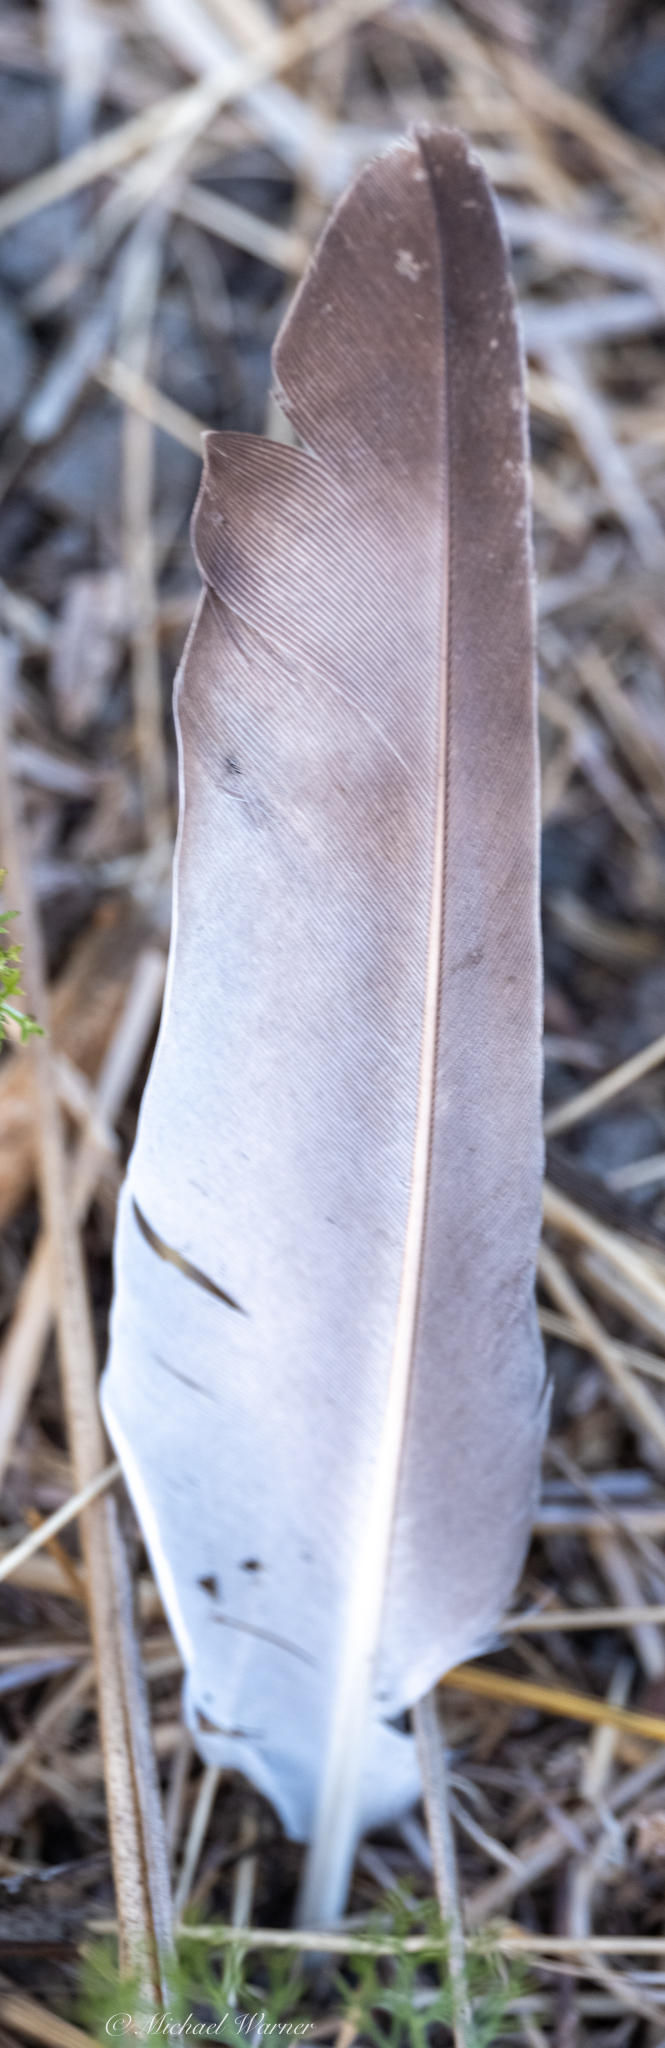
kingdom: Animalia
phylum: Chordata
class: Aves
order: Columbiformes
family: Columbidae
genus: Columba
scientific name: Columba livia
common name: Rock pigeon
